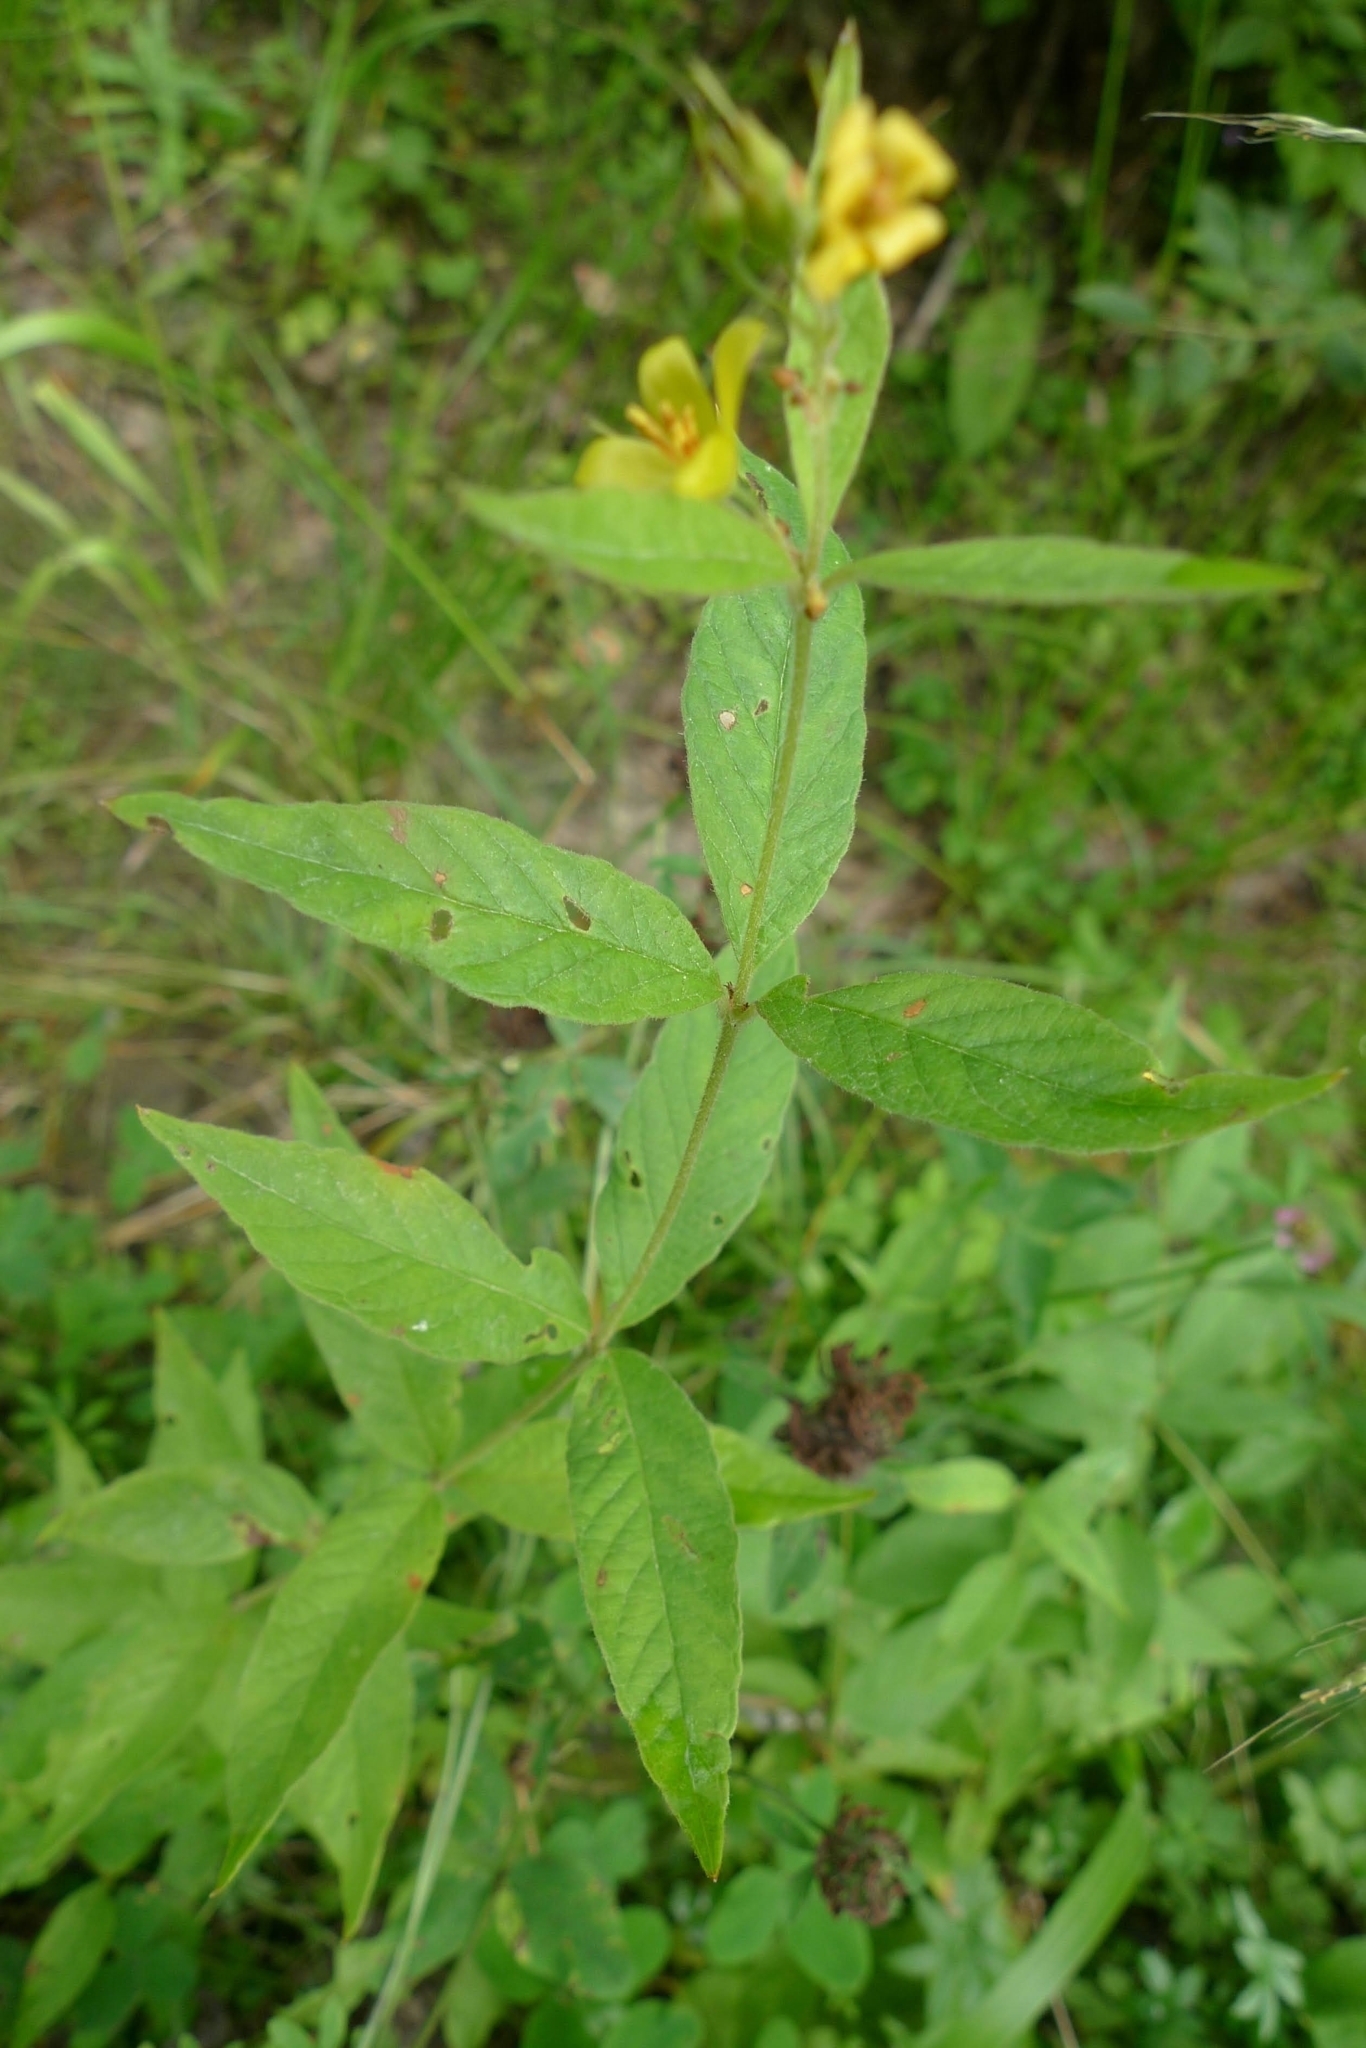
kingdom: Plantae
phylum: Tracheophyta
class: Magnoliopsida
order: Ericales
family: Primulaceae
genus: Lysimachia
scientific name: Lysimachia vulgaris
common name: Yellow loosestrife
